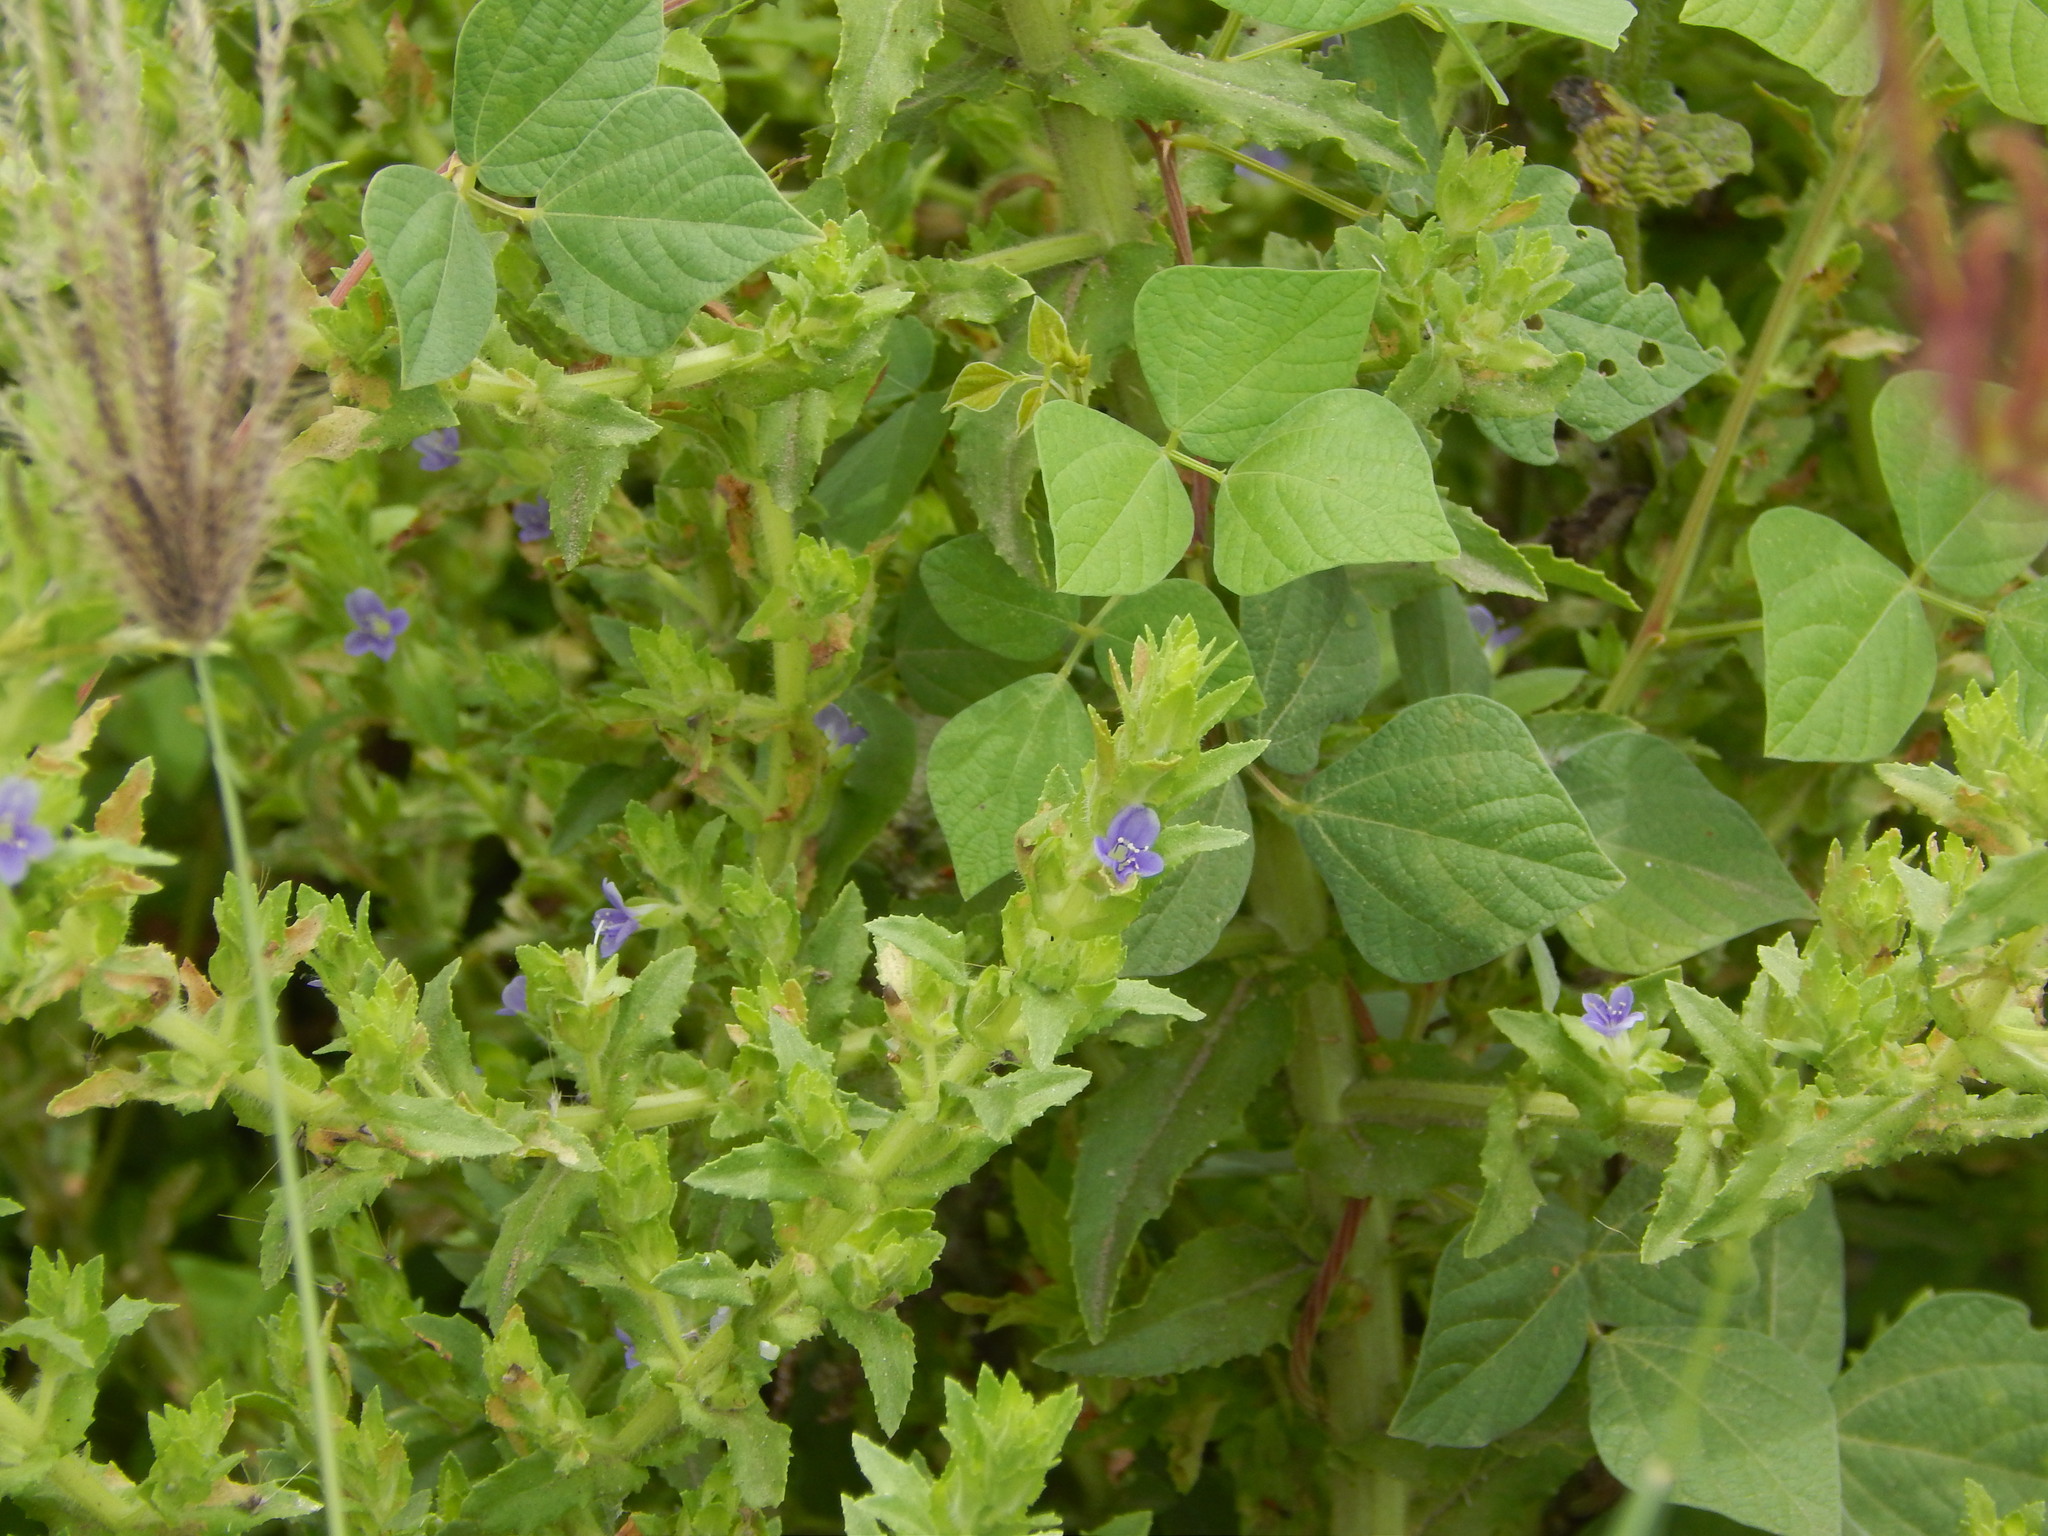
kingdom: Plantae
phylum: Tracheophyta
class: Magnoliopsida
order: Lamiales
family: Plantaginaceae
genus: Stemodia
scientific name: Stemodia maritima
